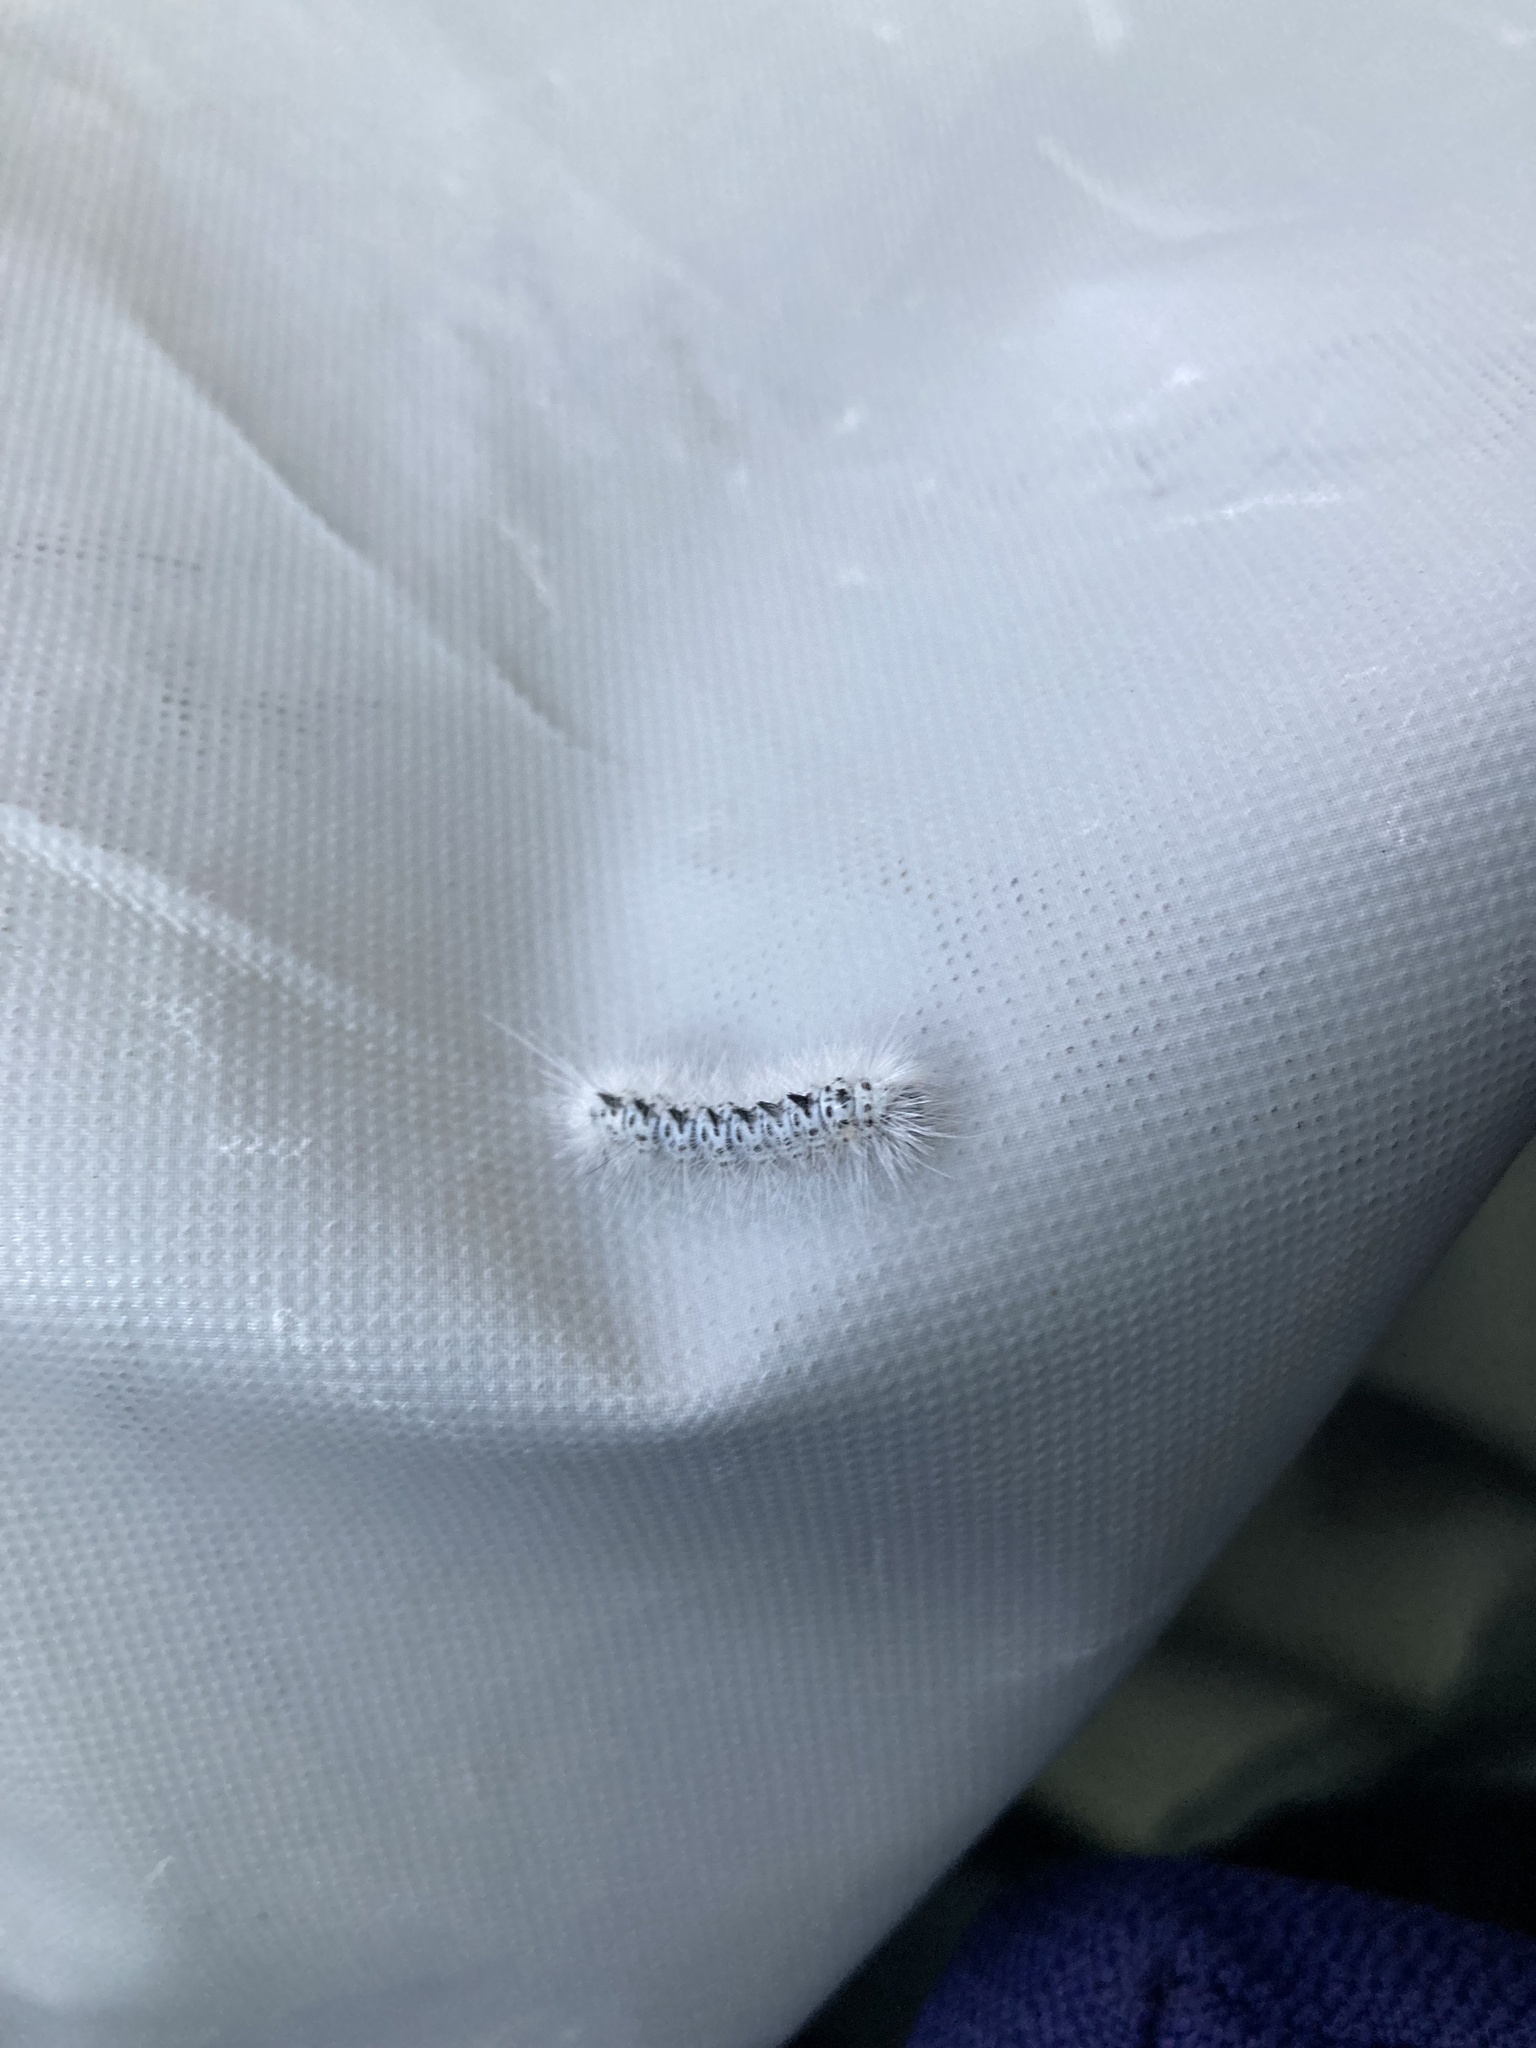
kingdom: Animalia
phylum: Arthropoda
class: Insecta
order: Lepidoptera
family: Erebidae
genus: Lophocampa
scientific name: Lophocampa caryae
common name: Hickory tussock moth
